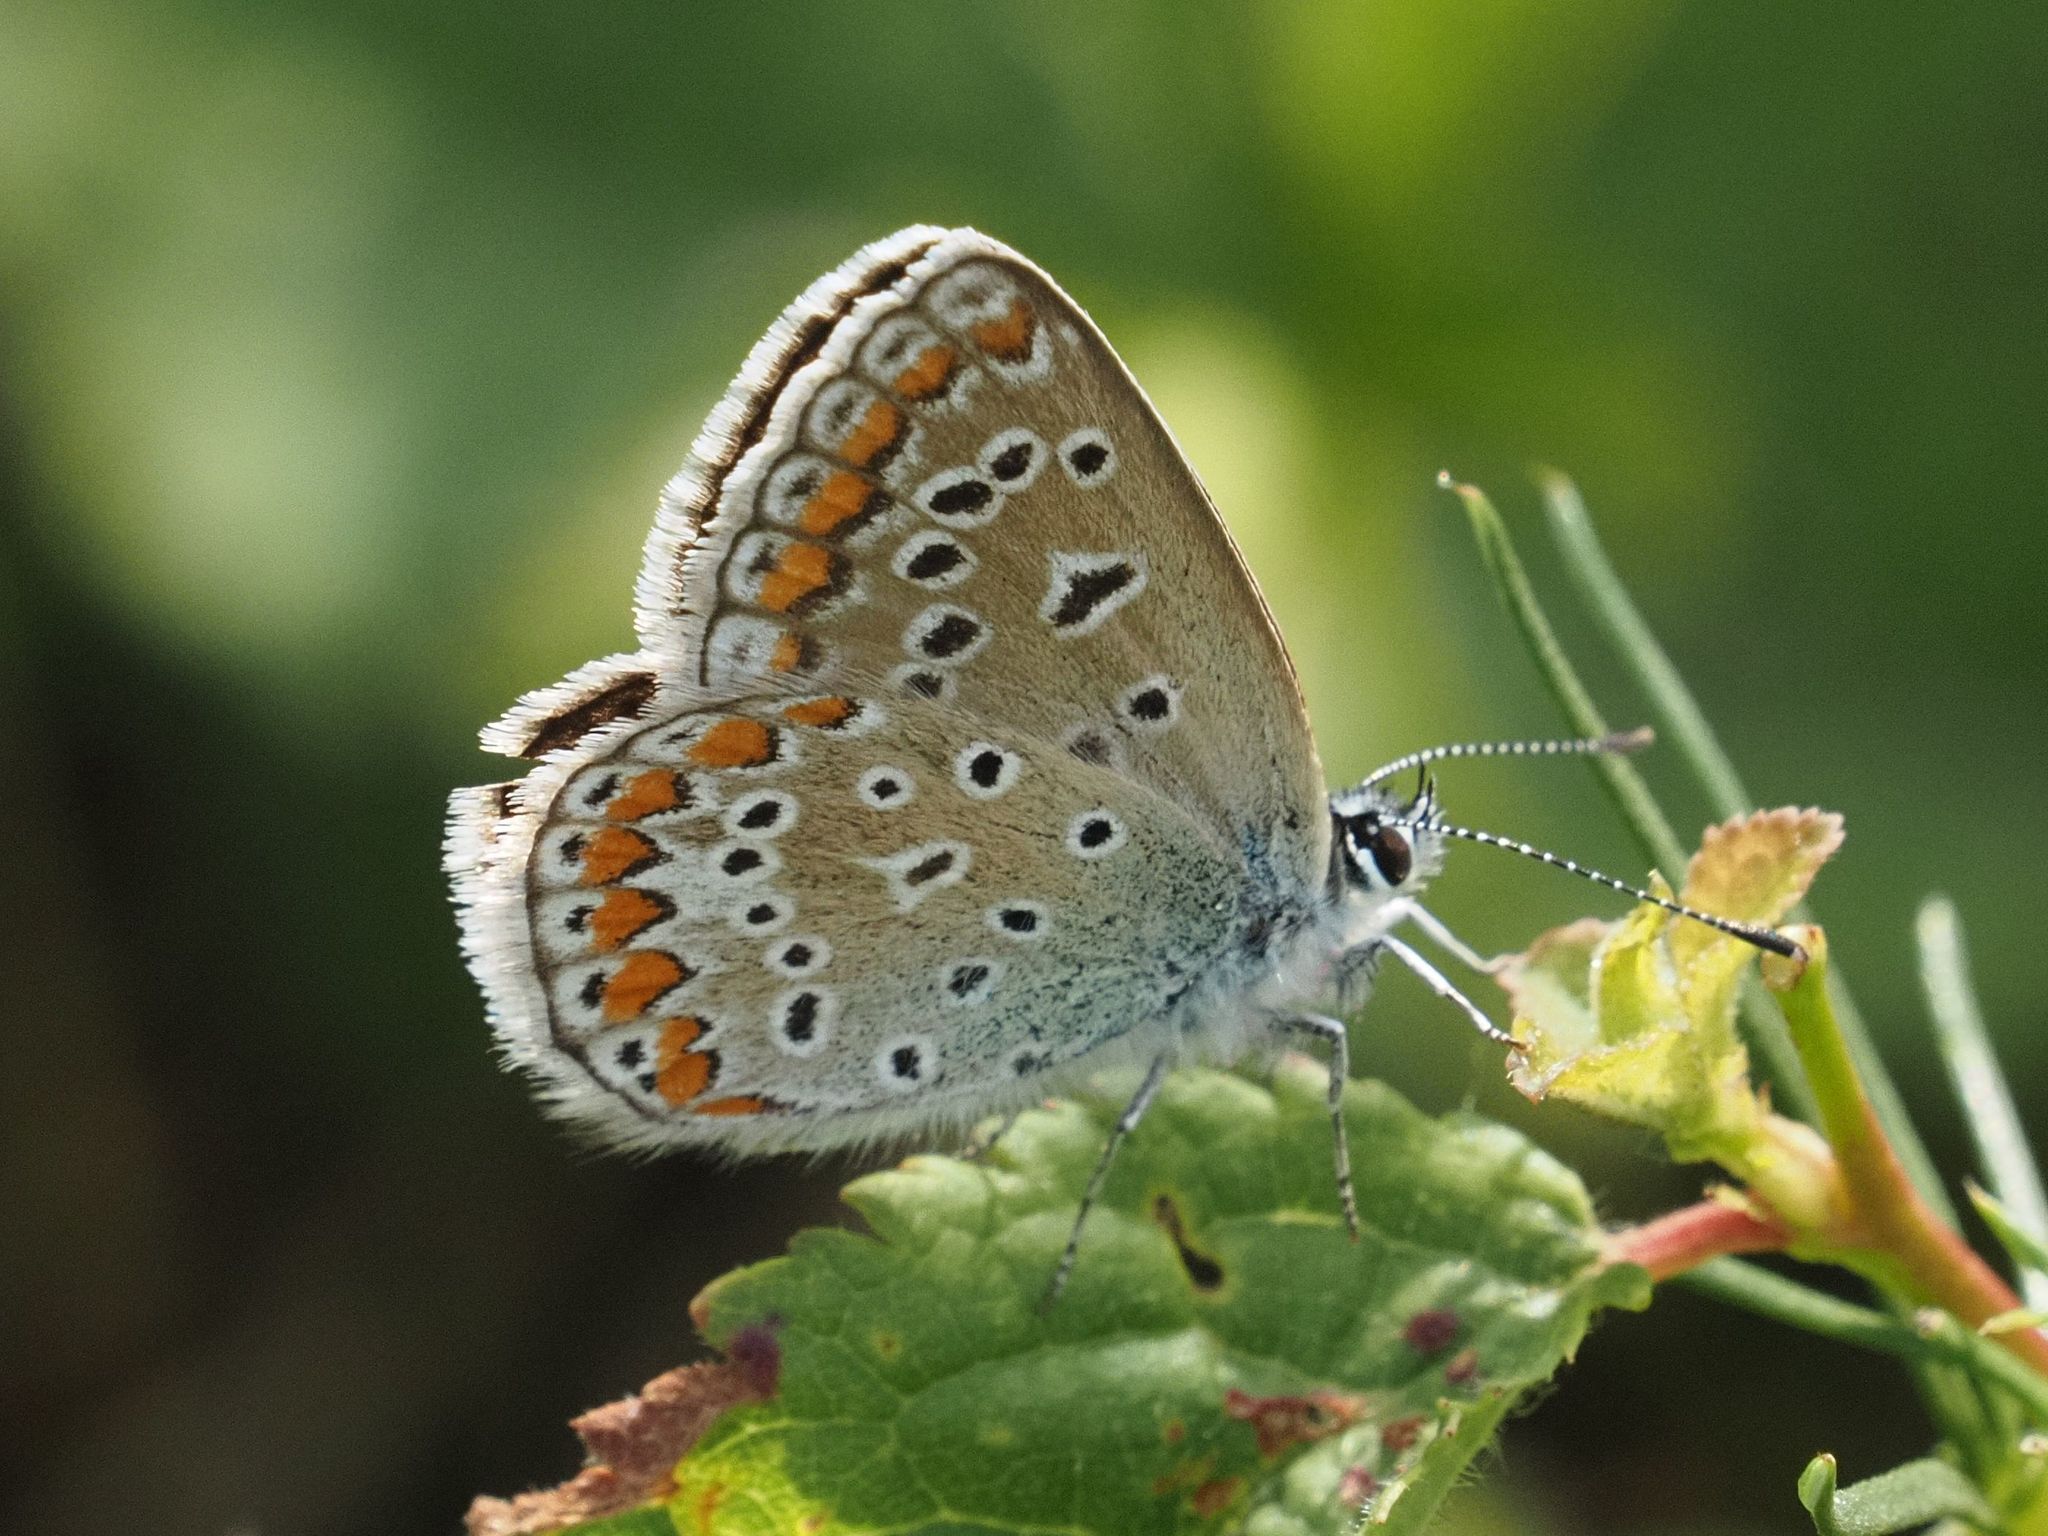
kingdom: Animalia
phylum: Arthropoda
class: Insecta
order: Lepidoptera
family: Lycaenidae
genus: Polyommatus
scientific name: Polyommatus icarus
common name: Common blue
